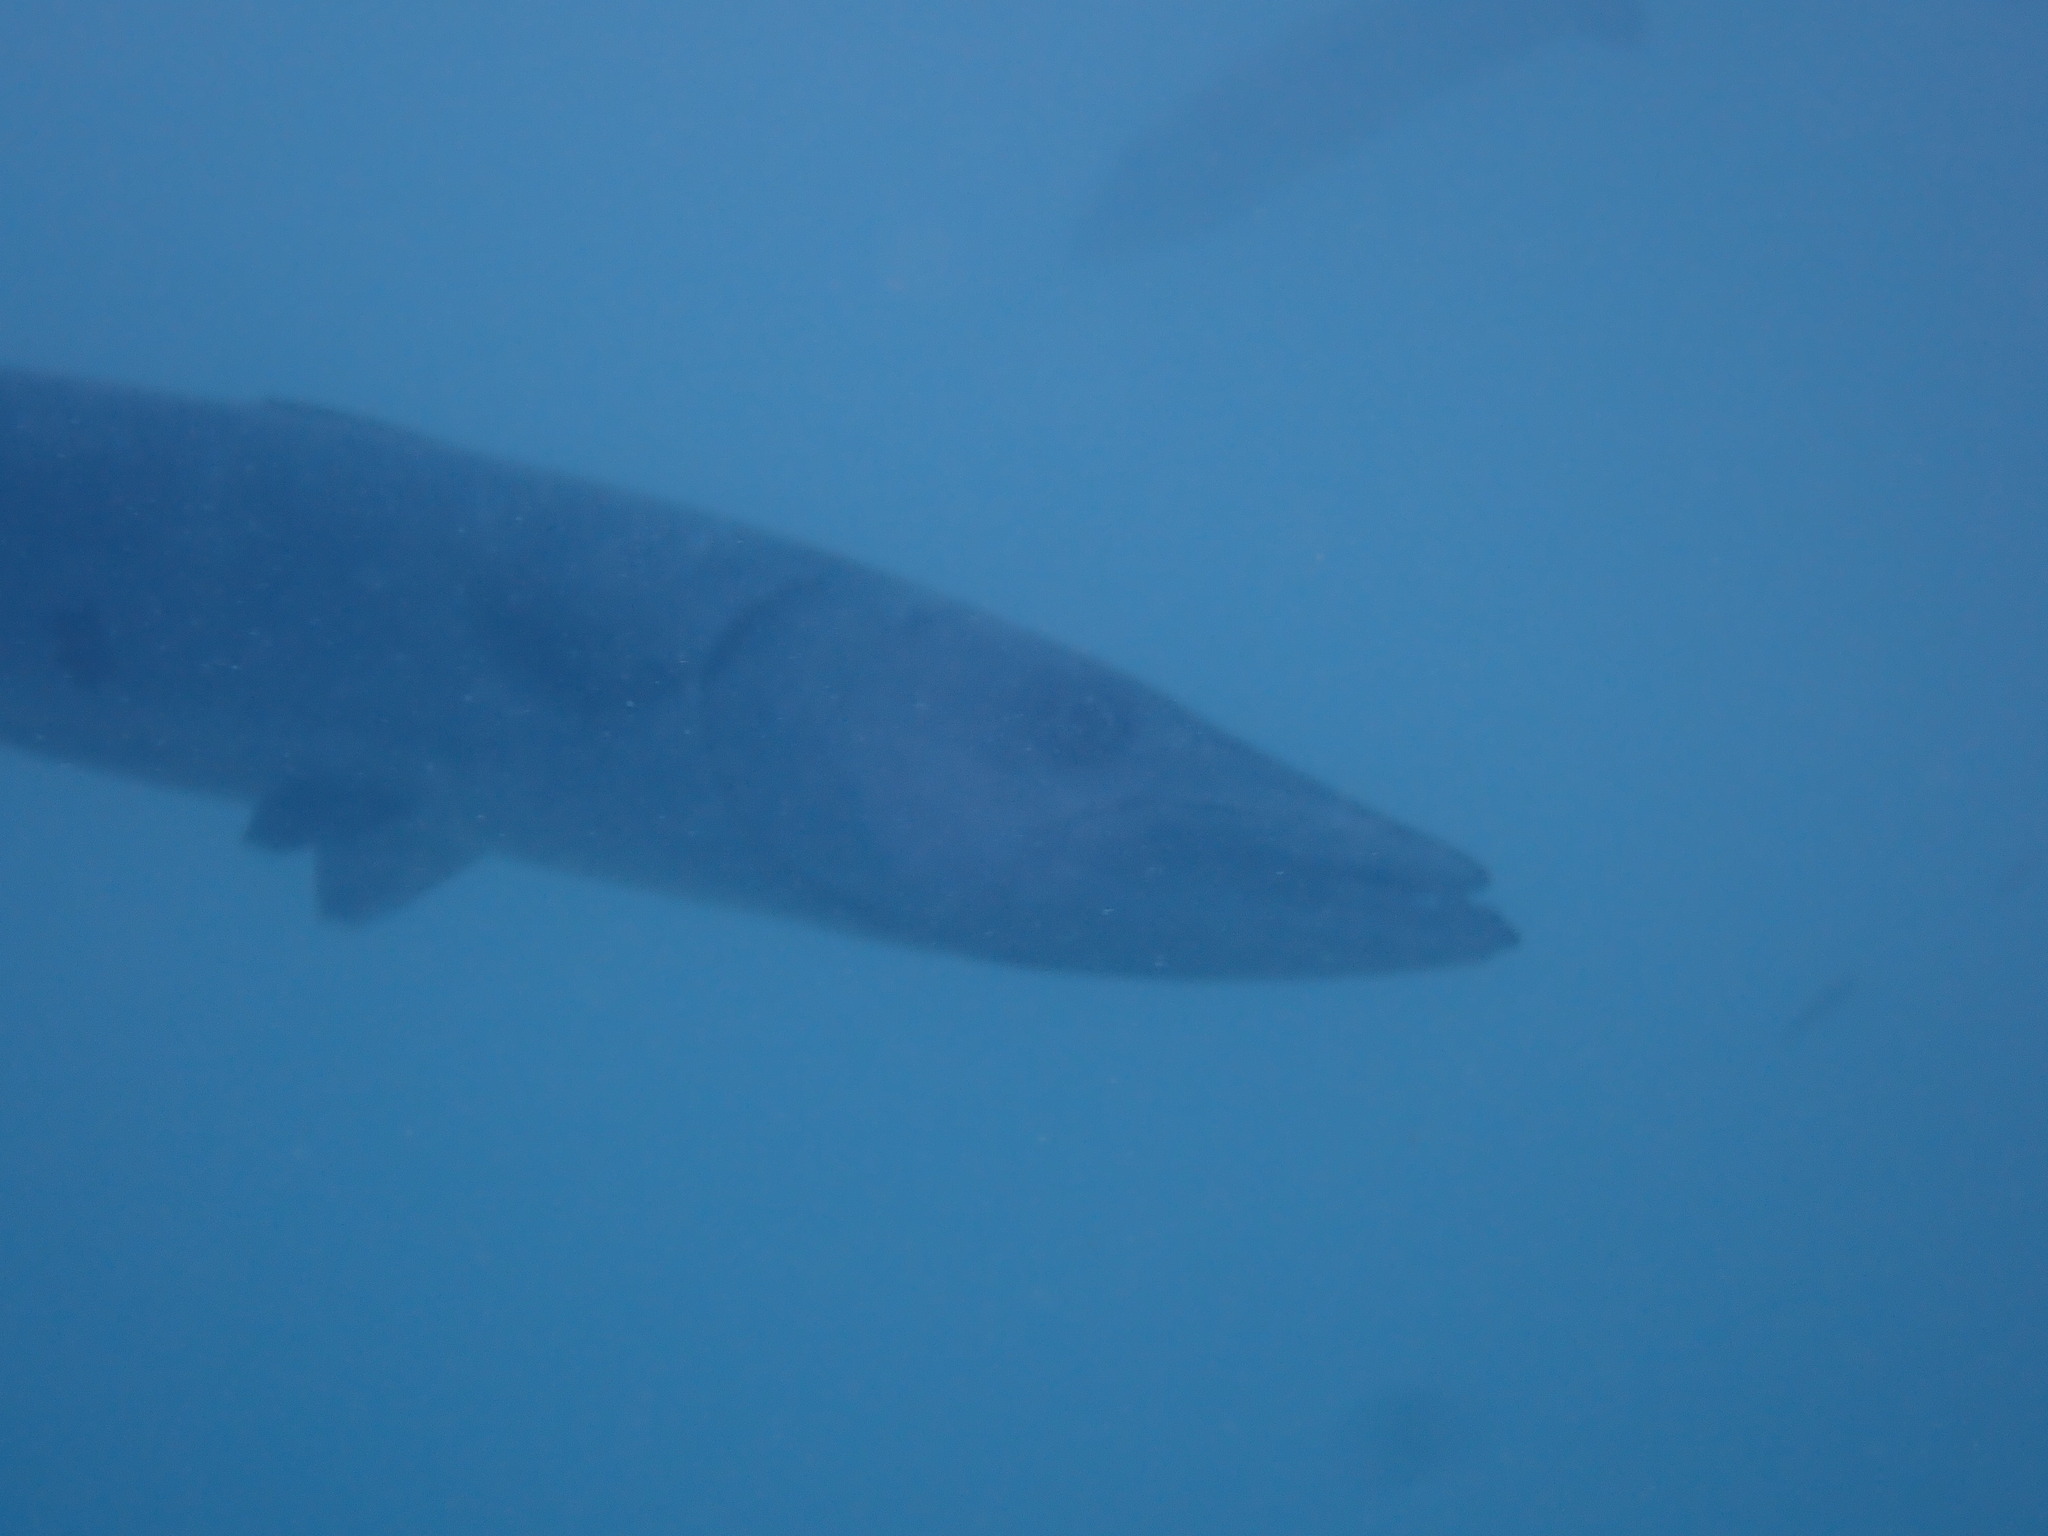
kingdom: Animalia
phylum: Chordata
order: Perciformes
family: Sphyraenidae
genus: Sphyraena
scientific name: Sphyraena barracuda
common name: Great barracuda
